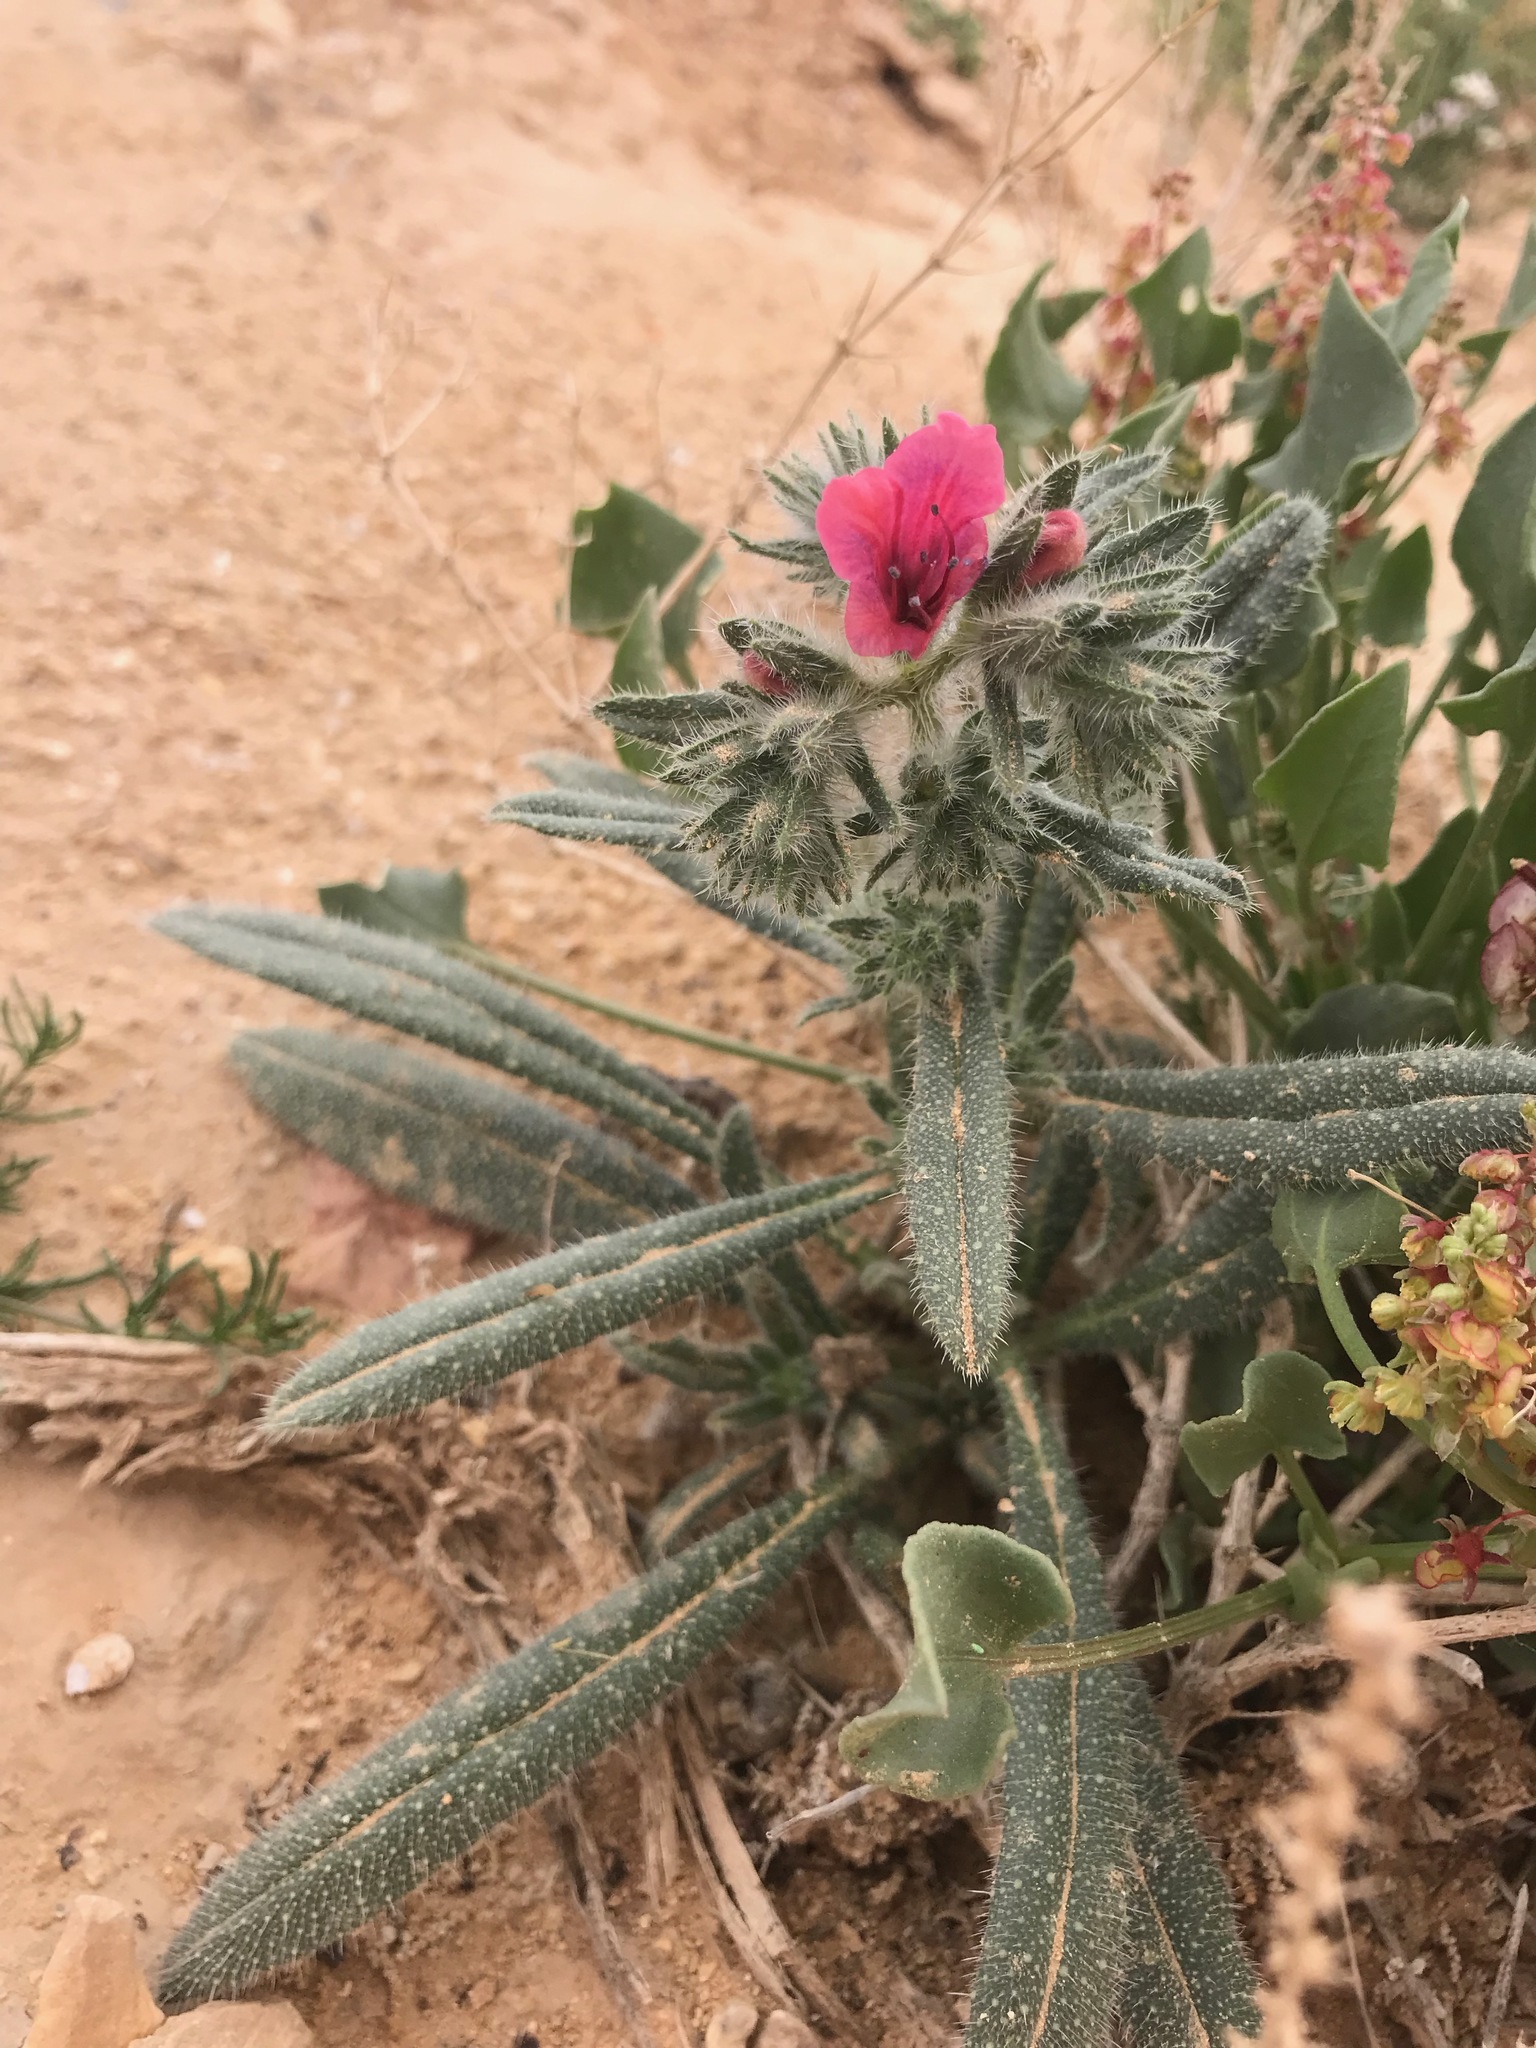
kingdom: Plantae
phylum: Tracheophyta
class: Magnoliopsida
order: Boraginales
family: Boraginaceae
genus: Echium
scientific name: Echium rauwolfii
